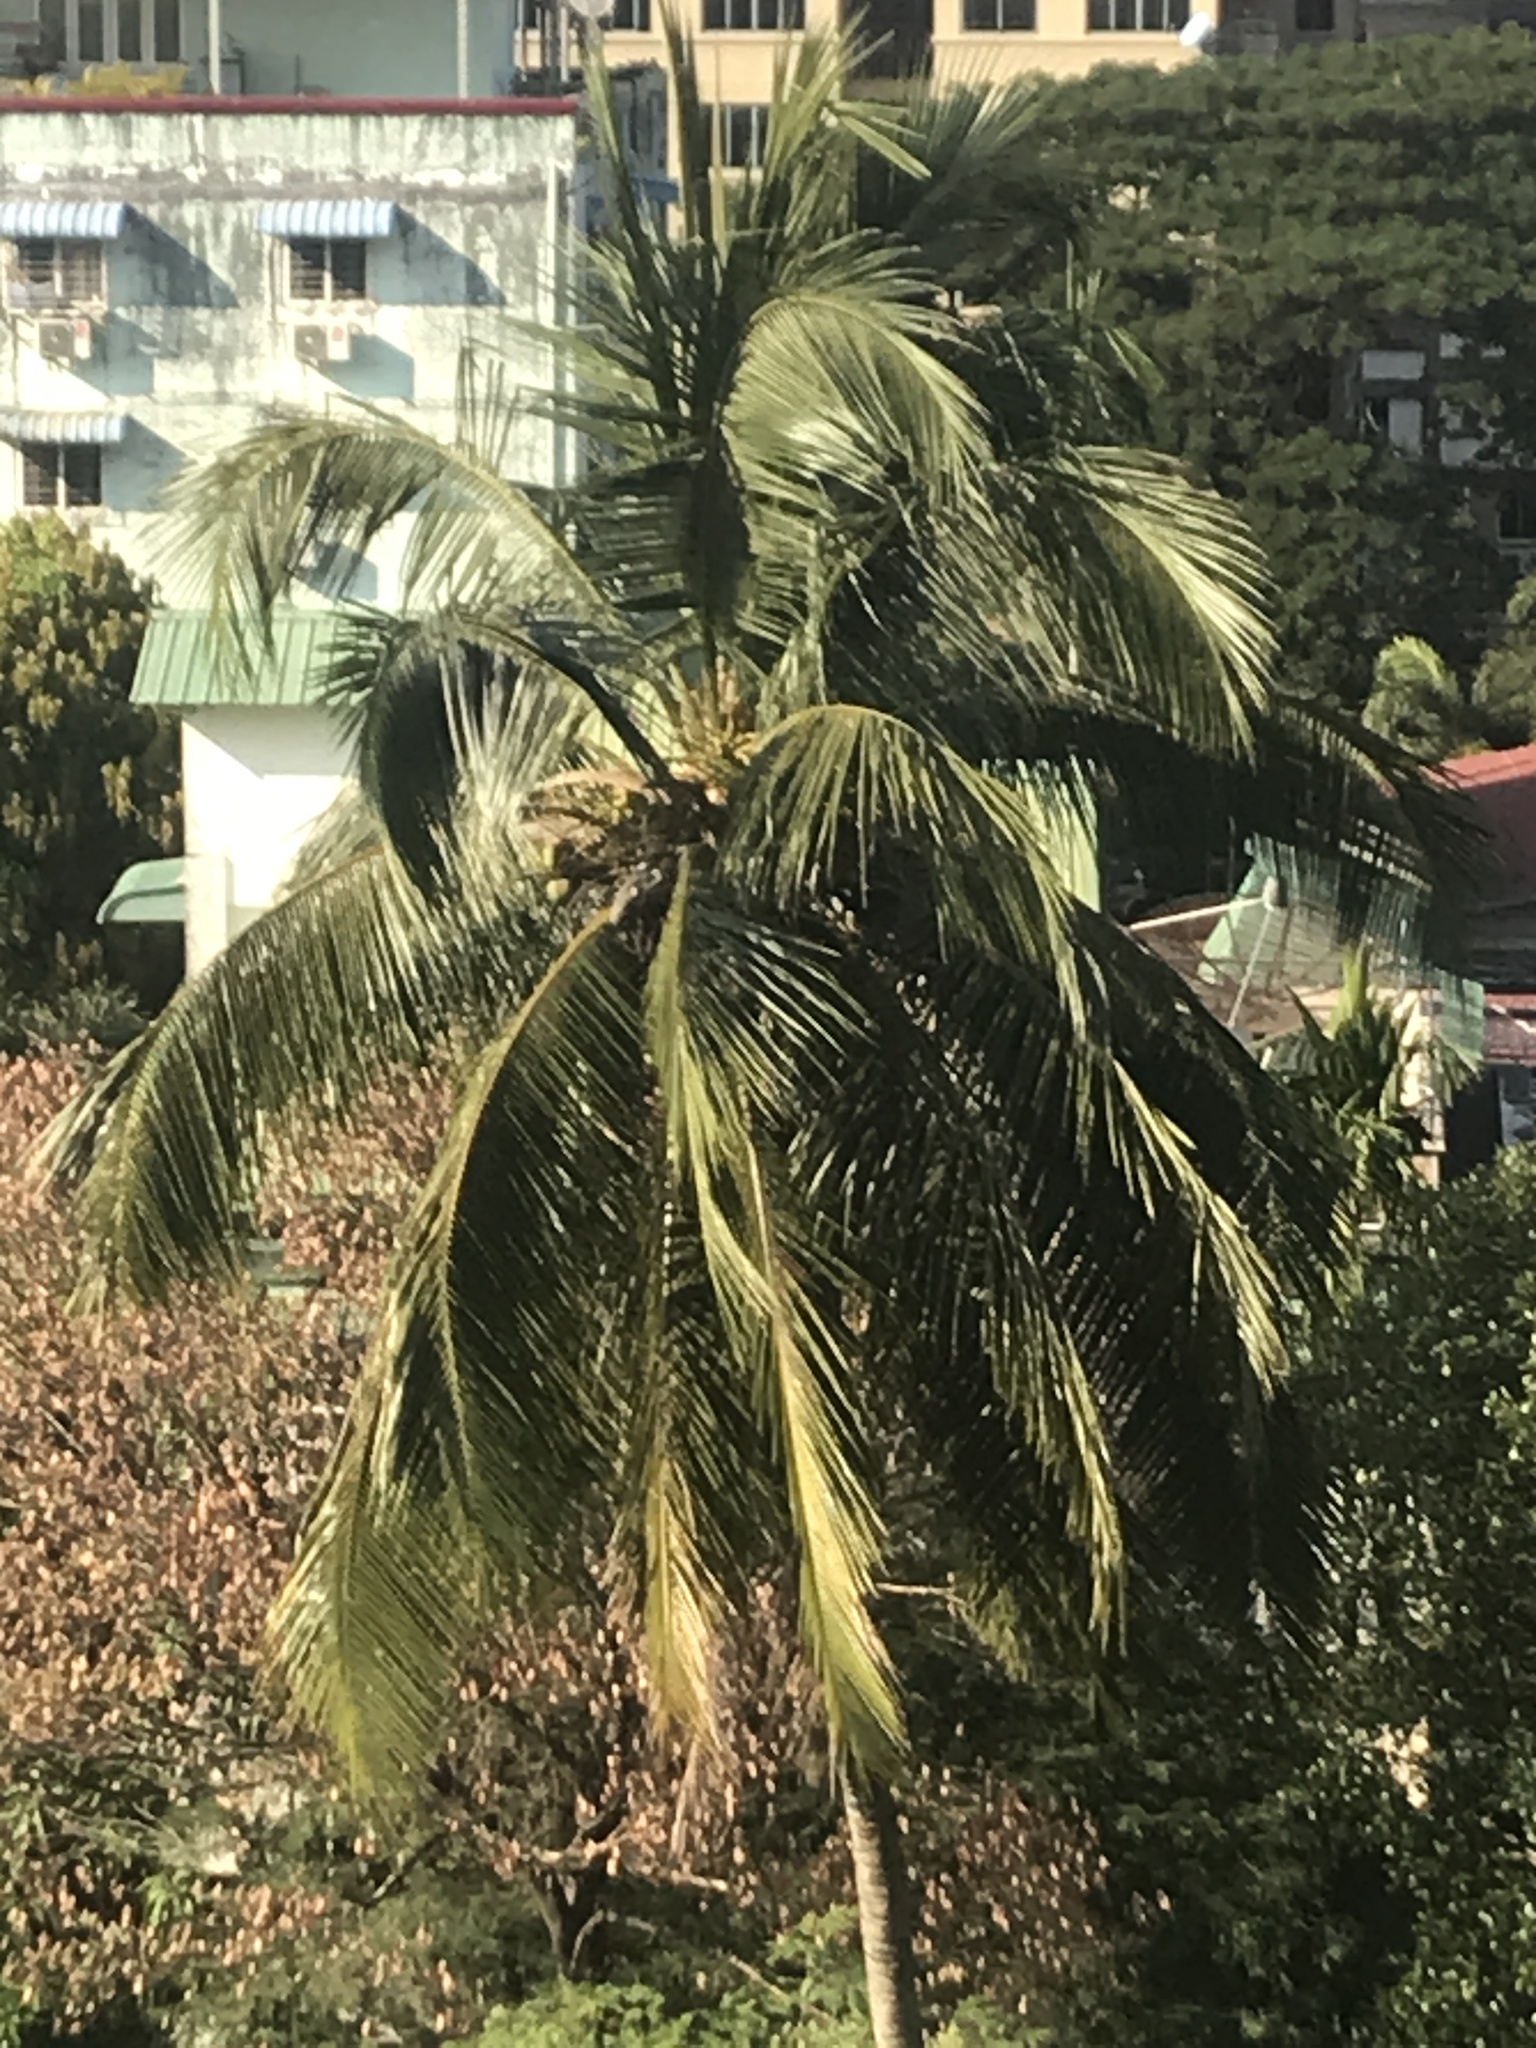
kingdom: Plantae
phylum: Tracheophyta
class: Liliopsida
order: Arecales
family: Arecaceae
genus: Cocos
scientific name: Cocos nucifera
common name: Coconut palm
